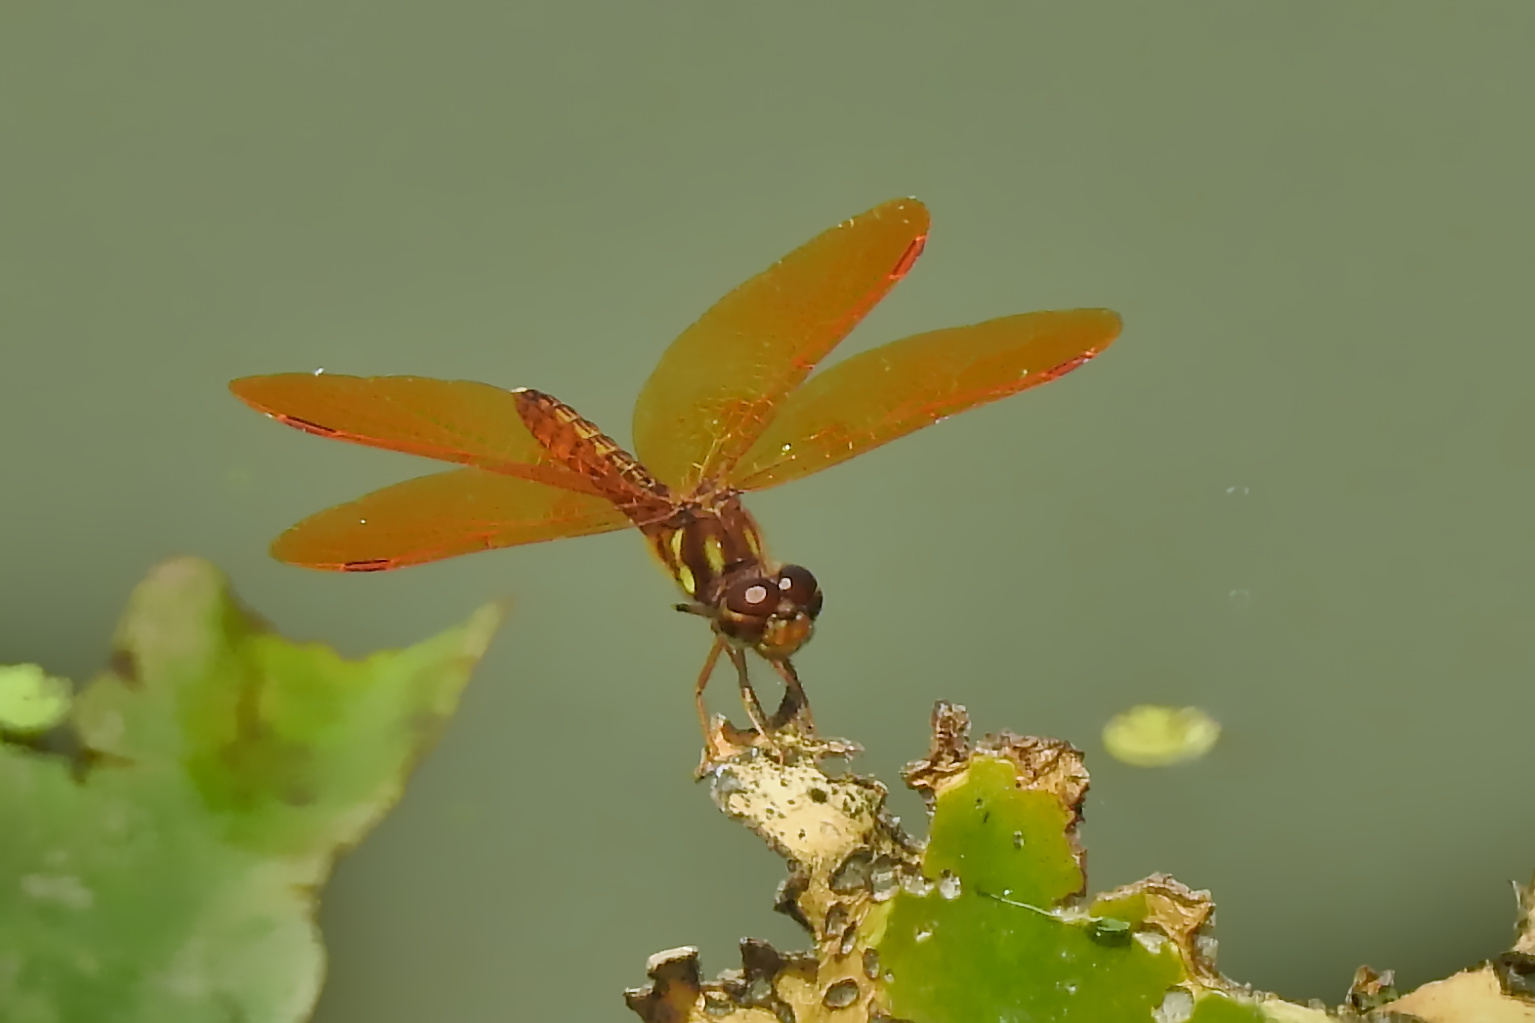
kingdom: Animalia
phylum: Arthropoda
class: Insecta
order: Odonata
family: Libellulidae
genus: Perithemis
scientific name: Perithemis tenera
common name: Eastern amberwing
